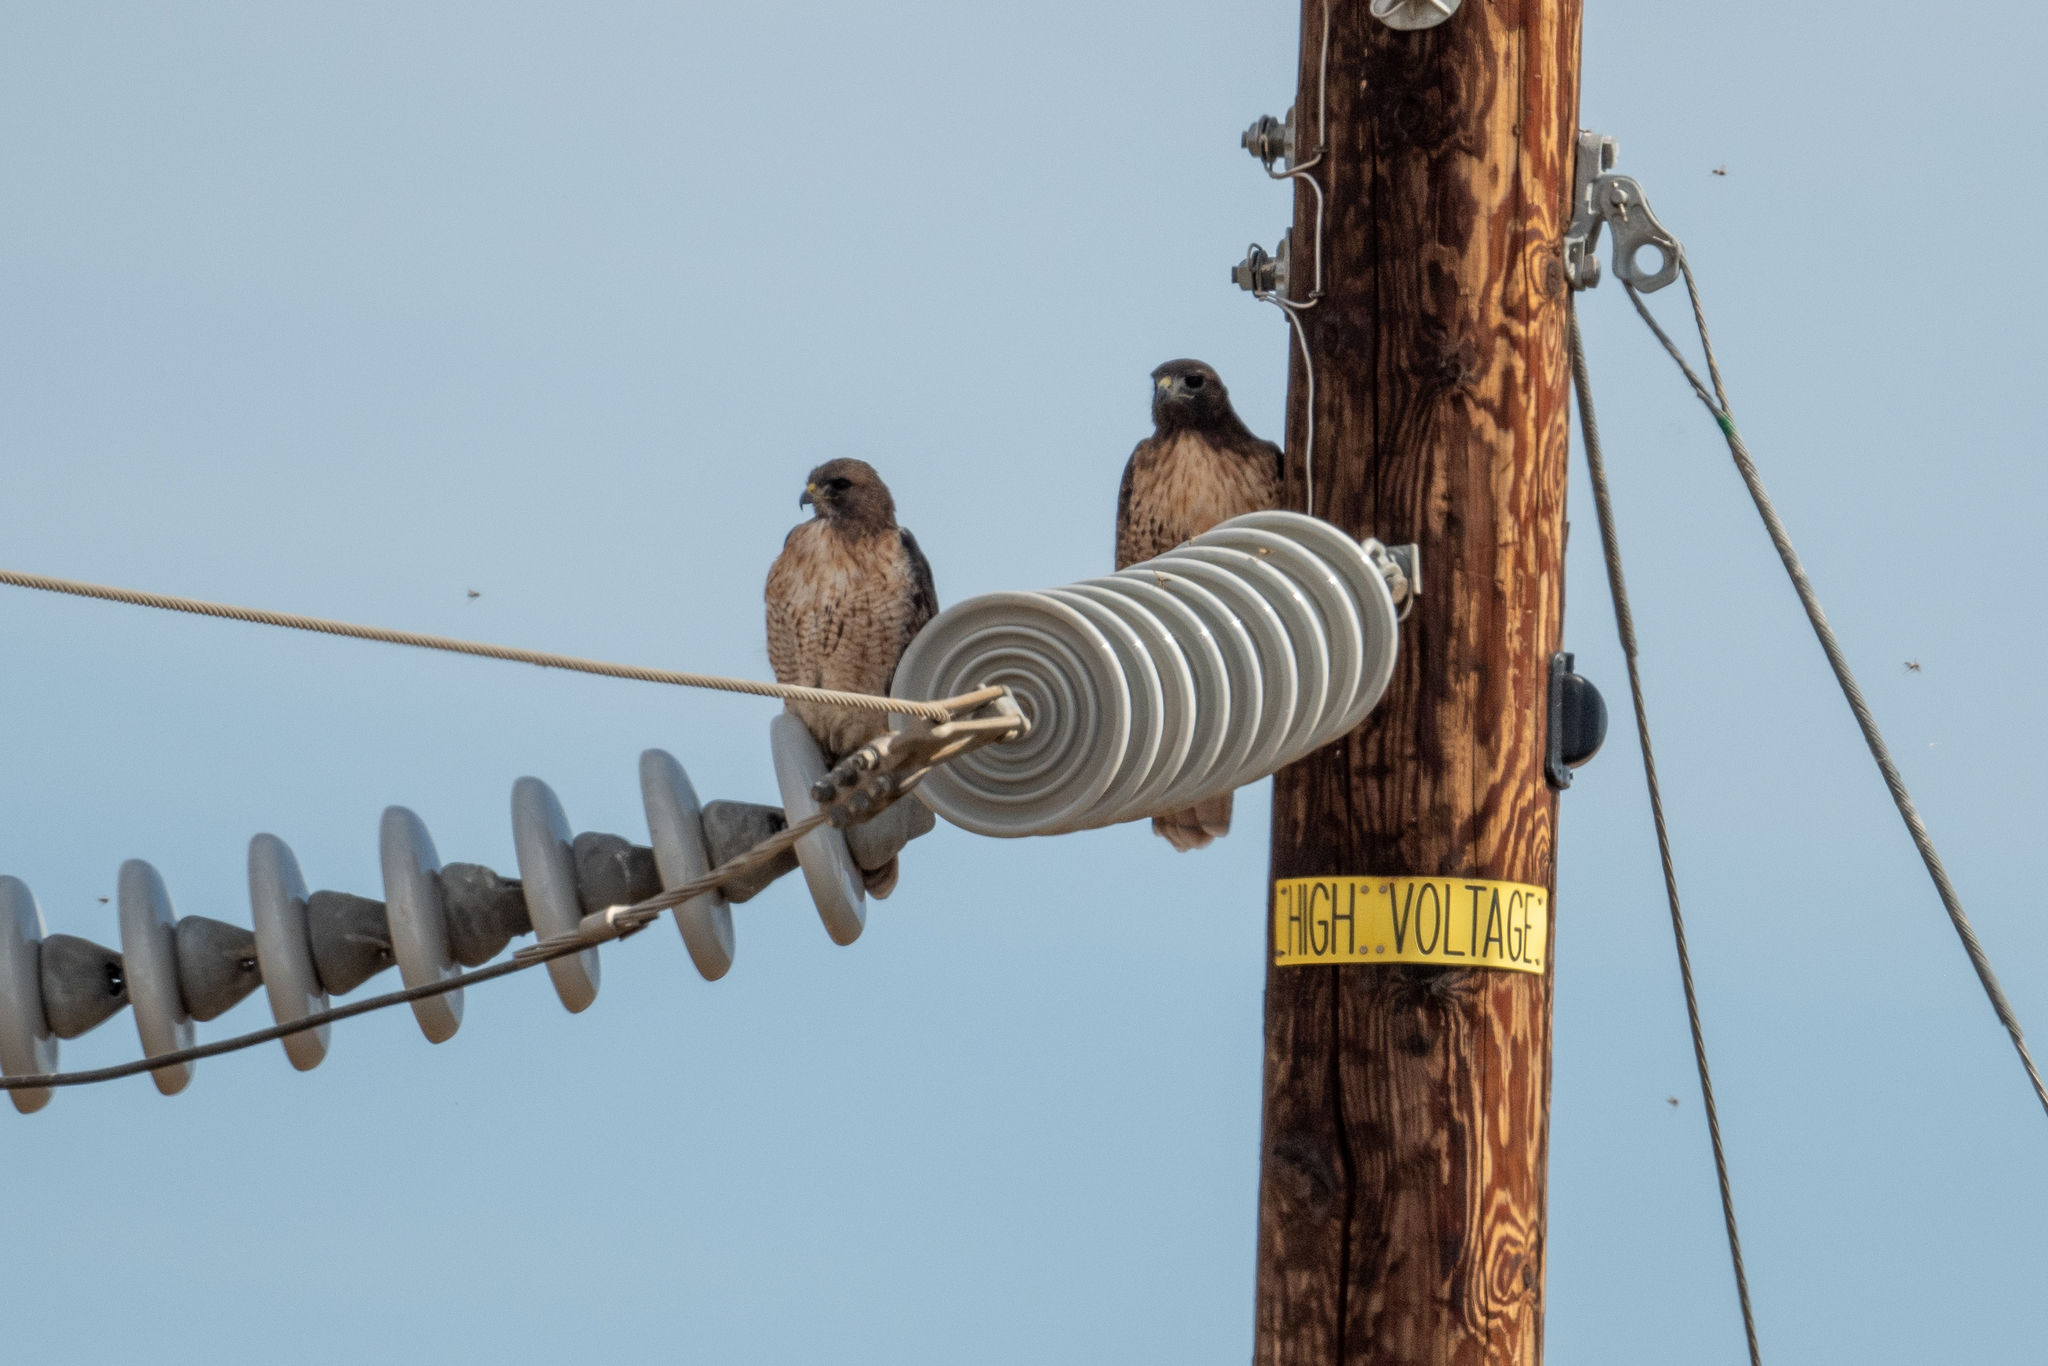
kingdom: Animalia
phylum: Chordata
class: Aves
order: Accipitriformes
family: Accipitridae
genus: Buteo
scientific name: Buteo jamaicensis
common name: Red-tailed hawk
